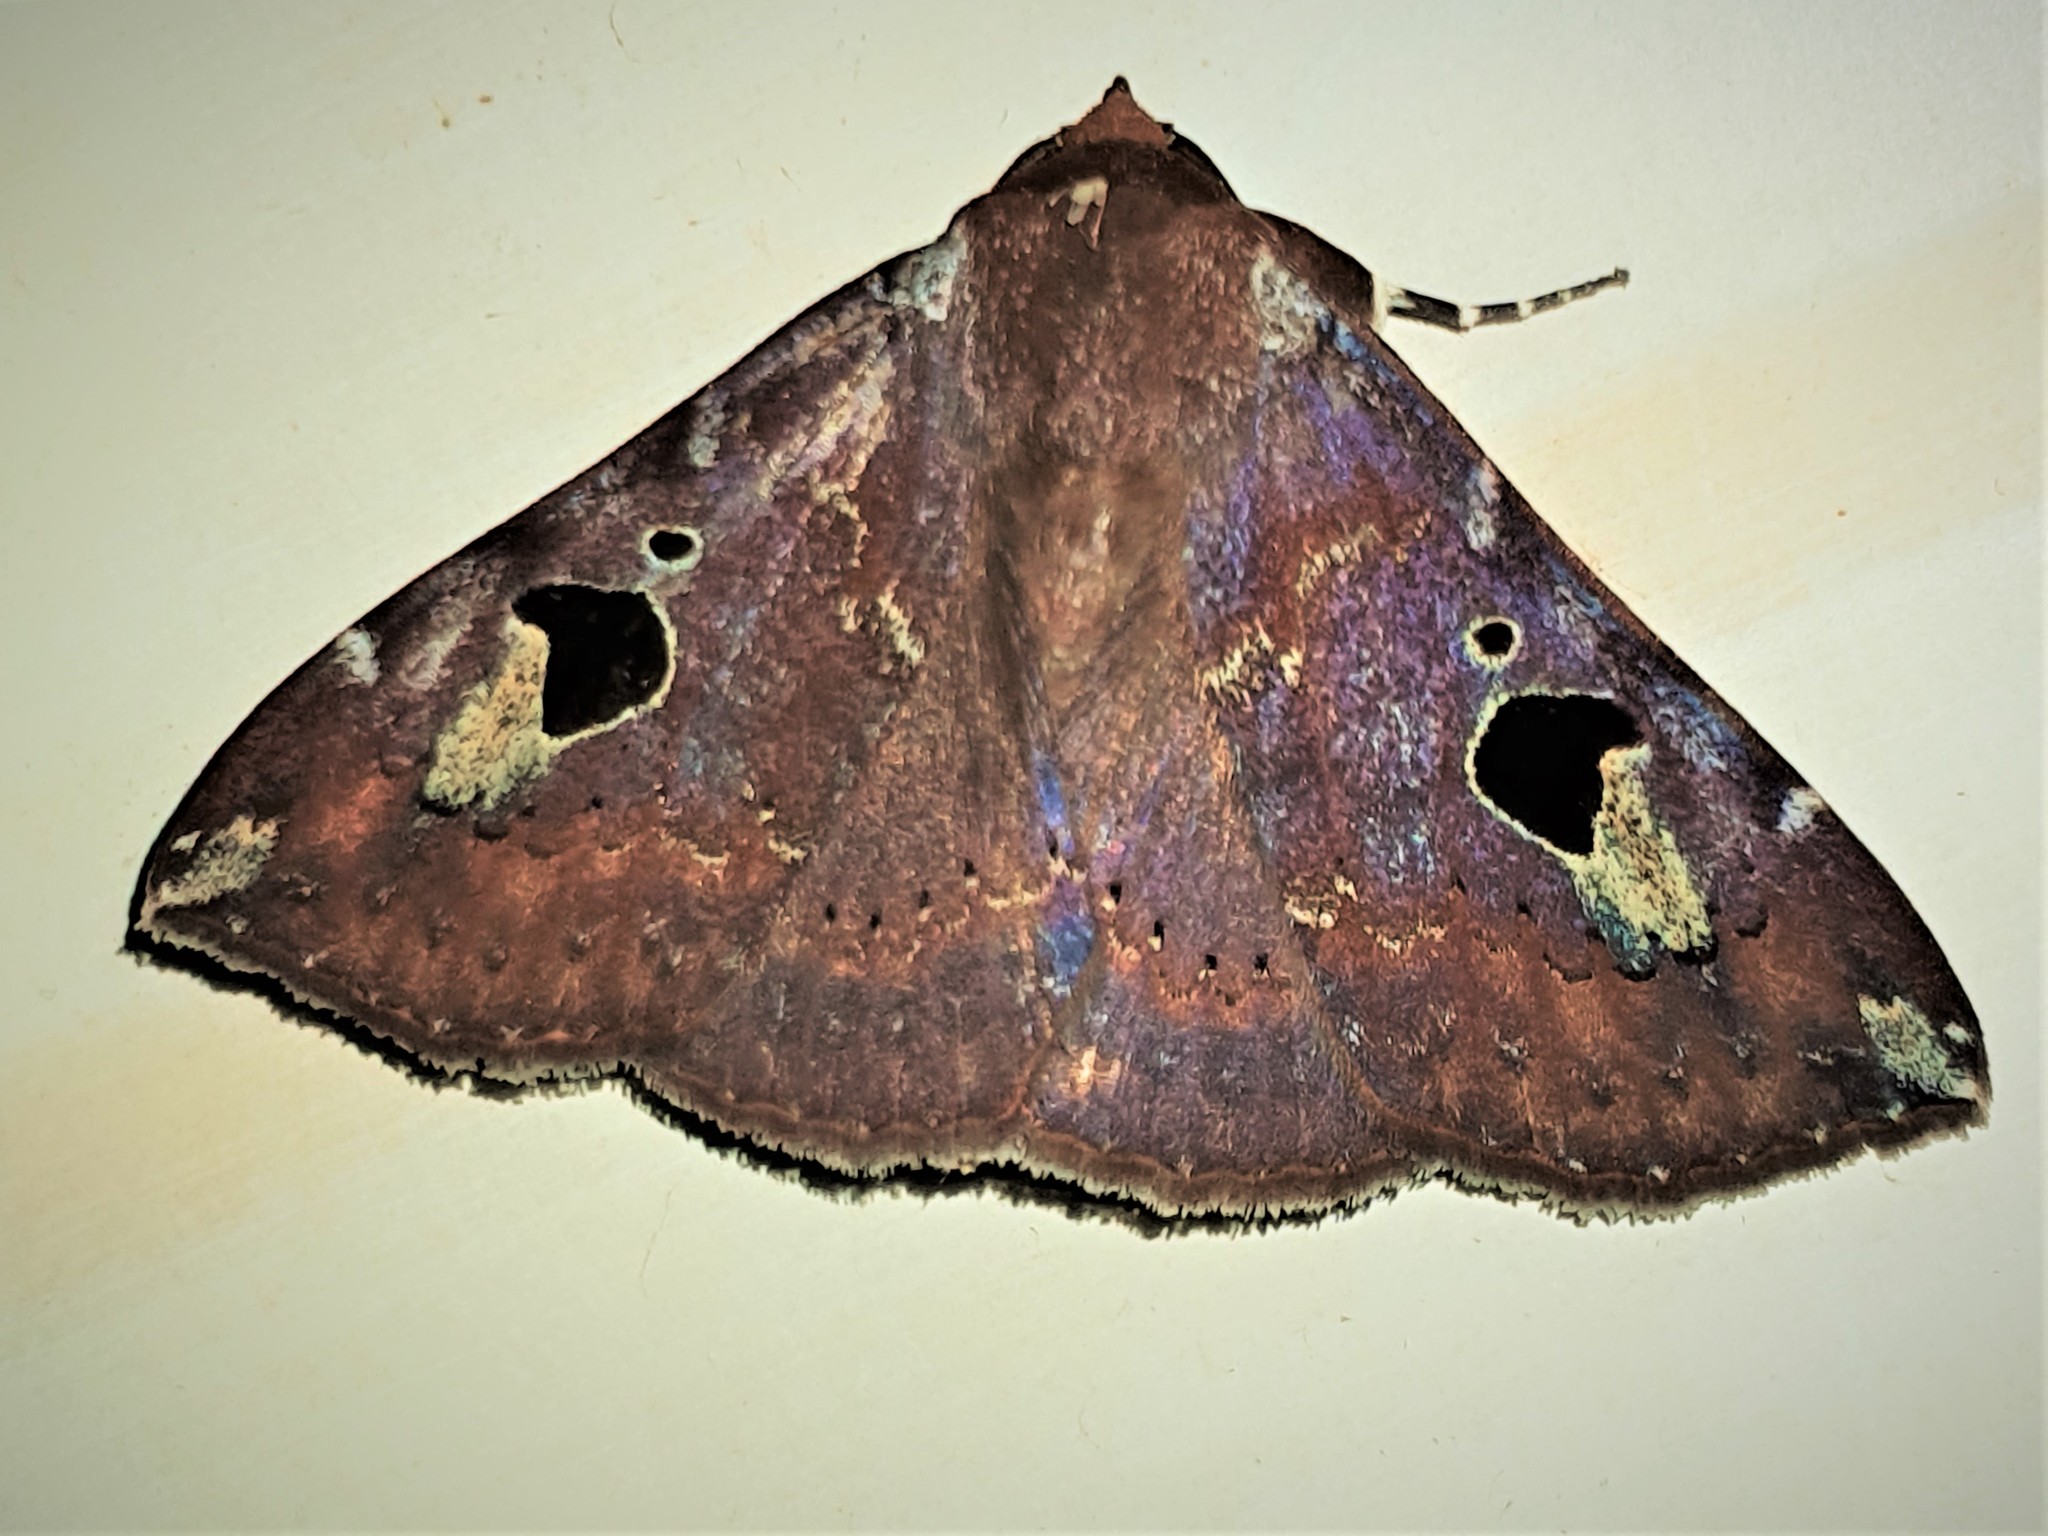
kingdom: Animalia
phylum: Arthropoda
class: Insecta
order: Lepidoptera
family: Erebidae
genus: Obroatis
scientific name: Obroatis distincta
